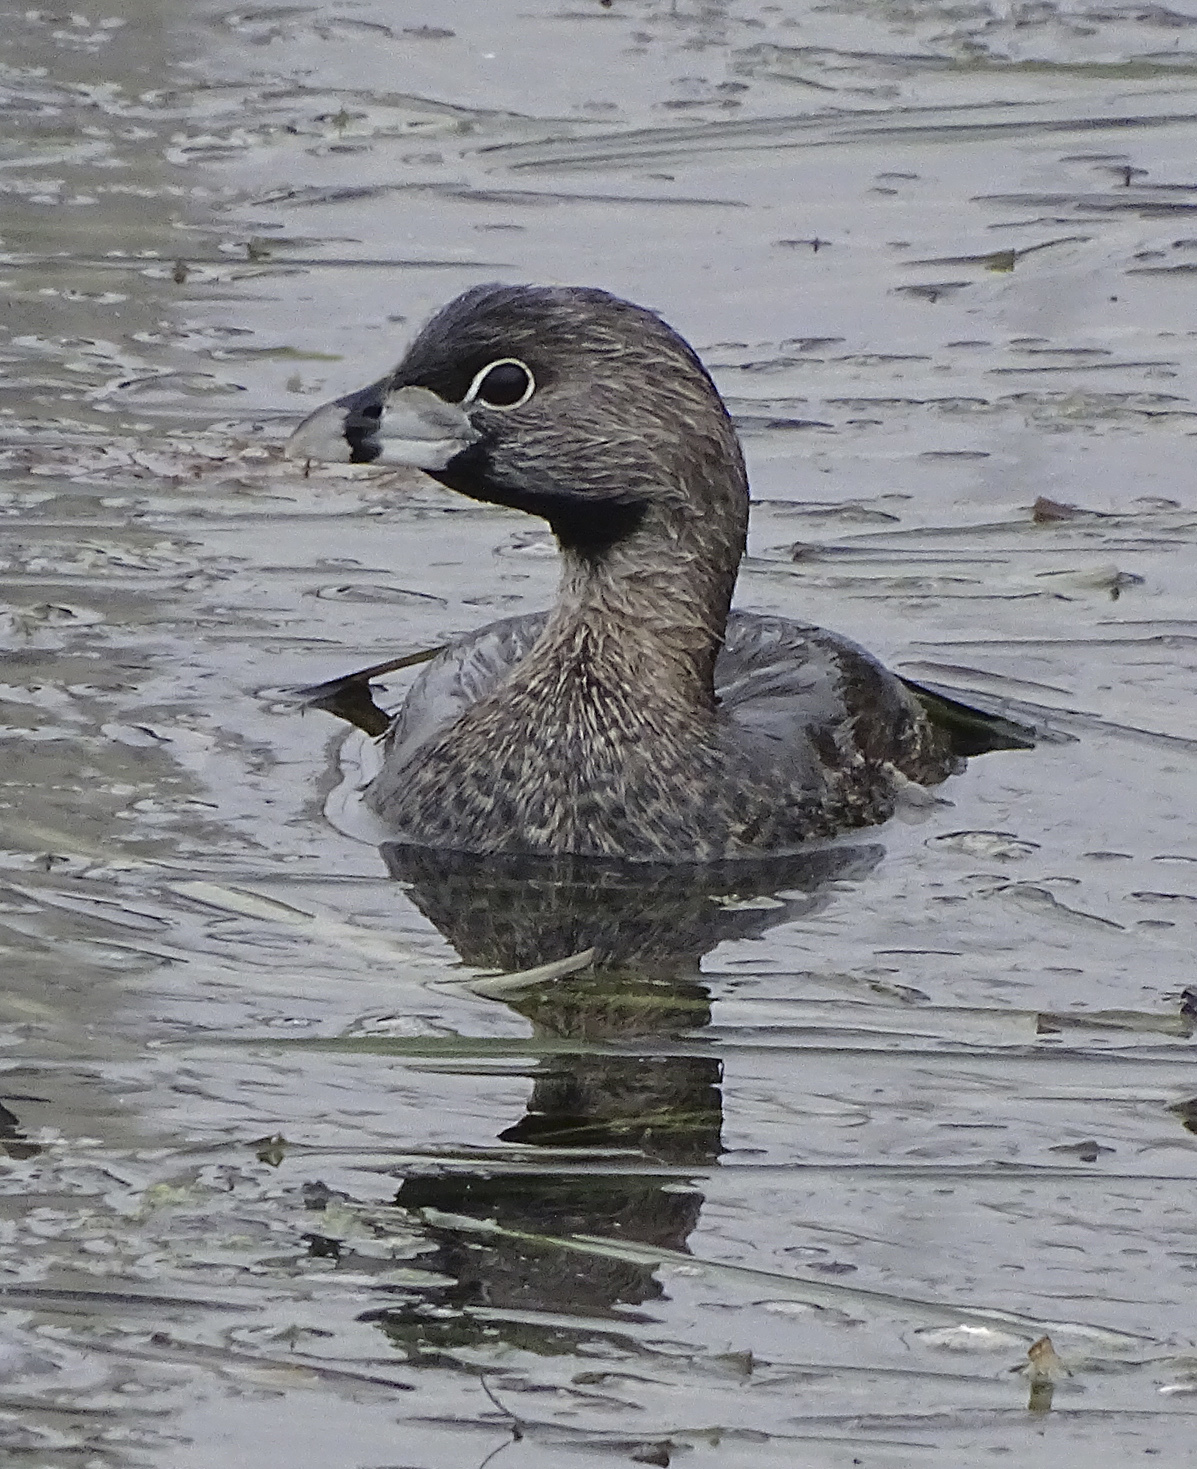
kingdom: Animalia
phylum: Chordata
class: Aves
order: Podicipediformes
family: Podicipedidae
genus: Podilymbus
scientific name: Podilymbus podiceps
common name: Pied-billed grebe
